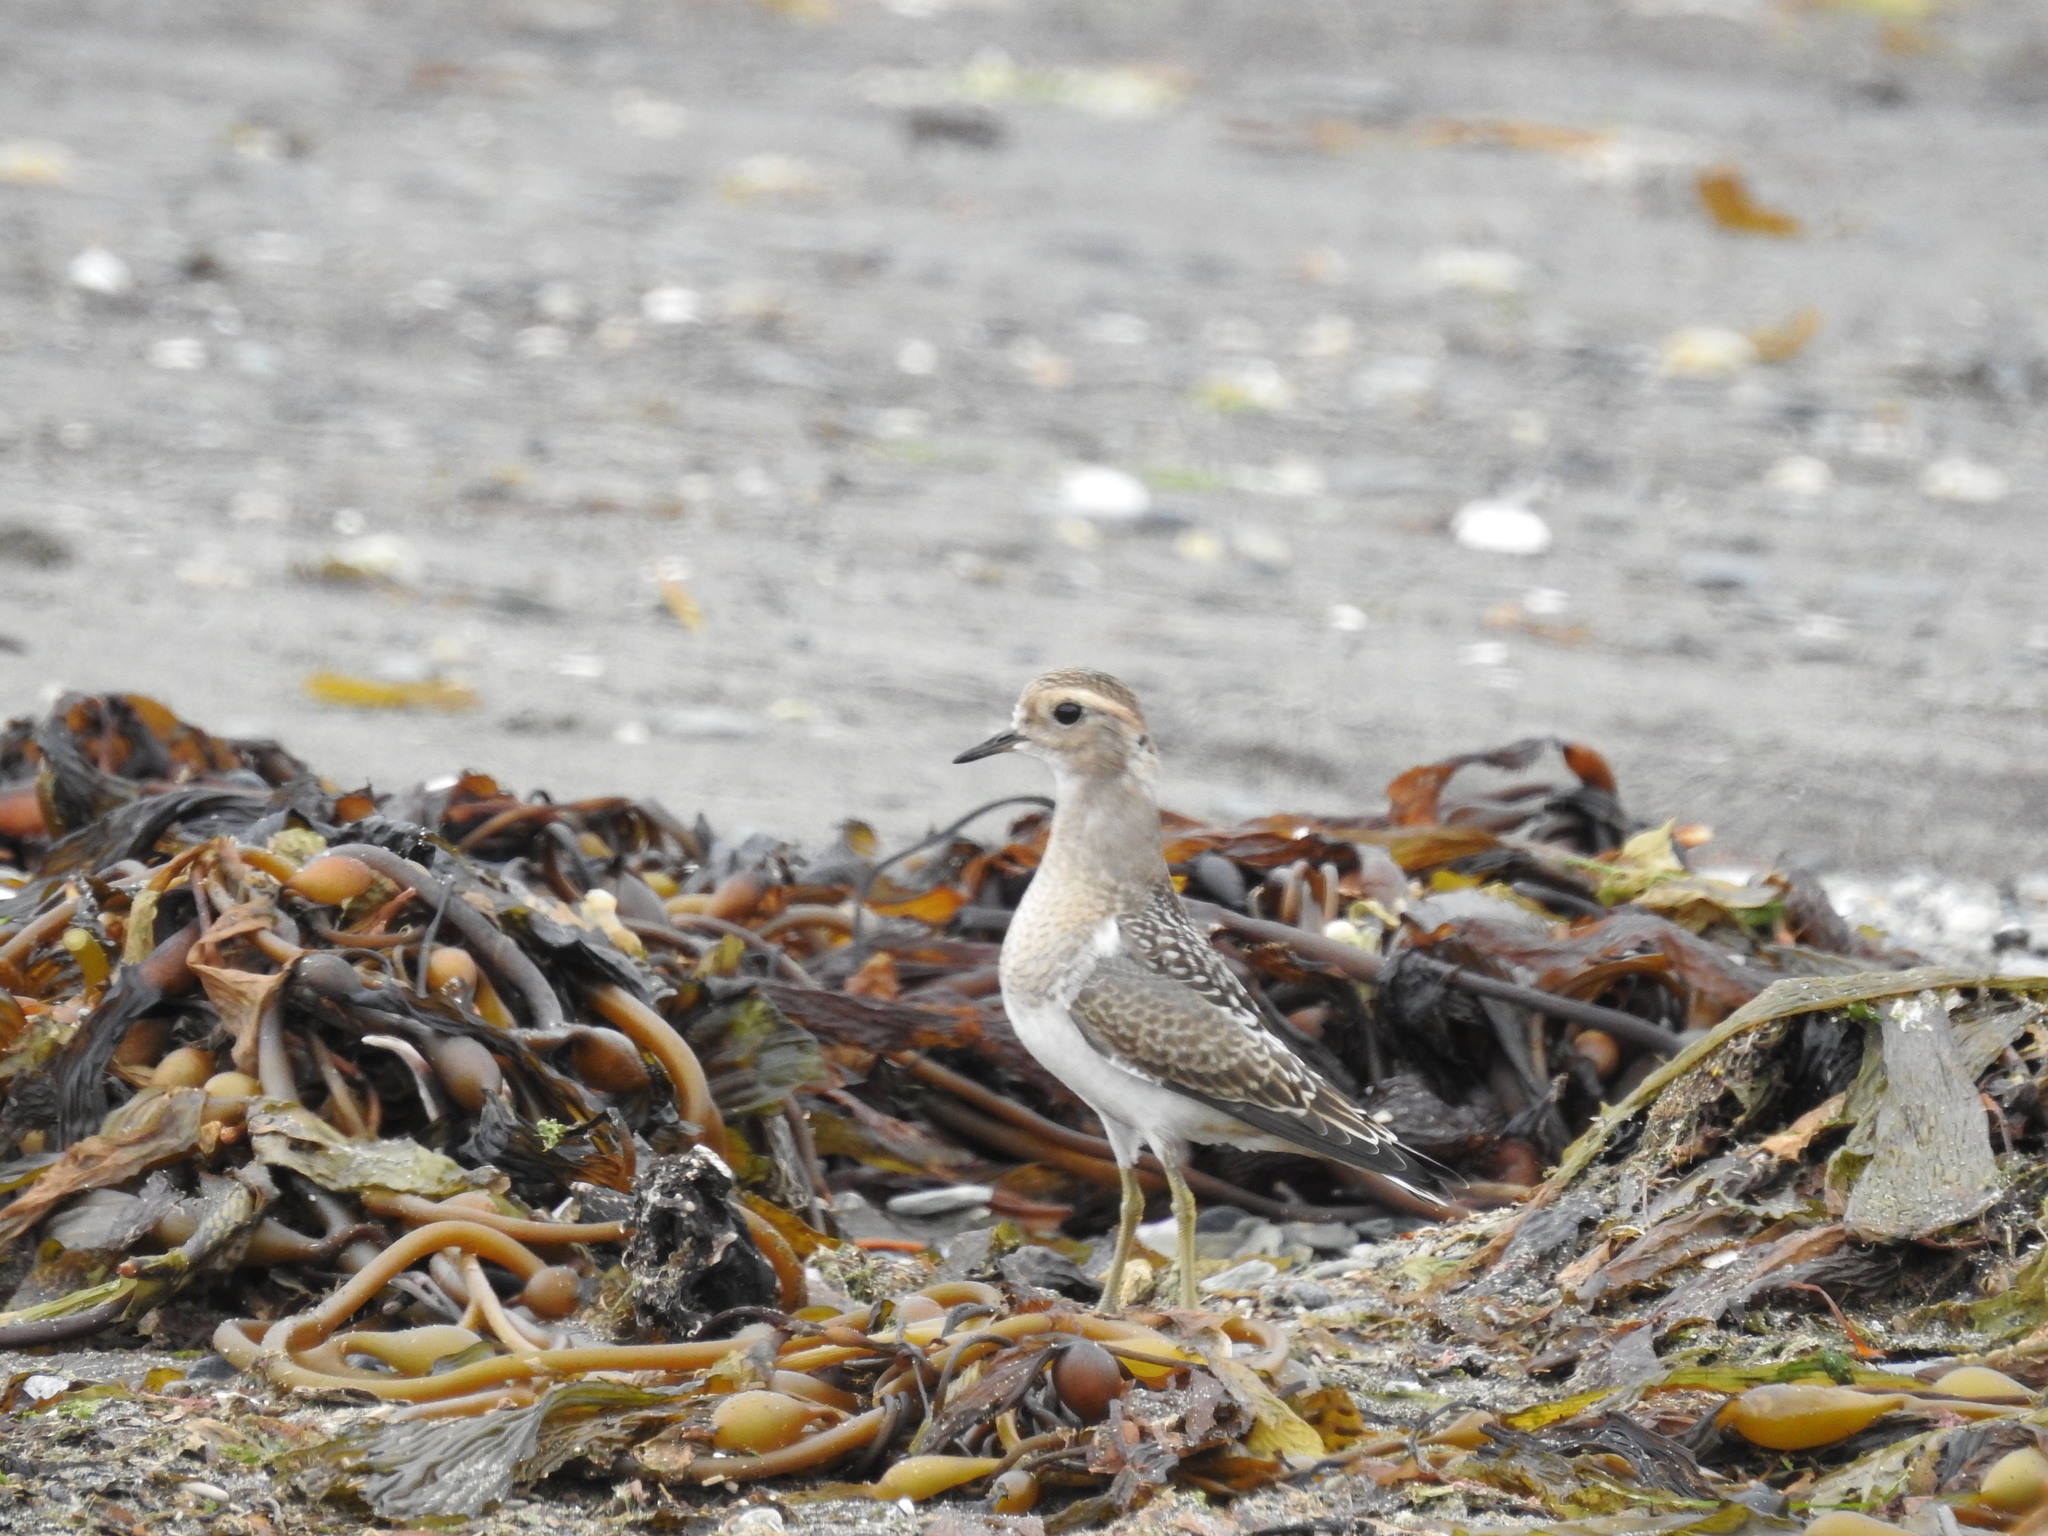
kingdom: Animalia
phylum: Chordata
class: Aves
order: Charadriiformes
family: Charadriidae
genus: Charadrius
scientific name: Charadrius modestus
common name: Rufous-chested plover
